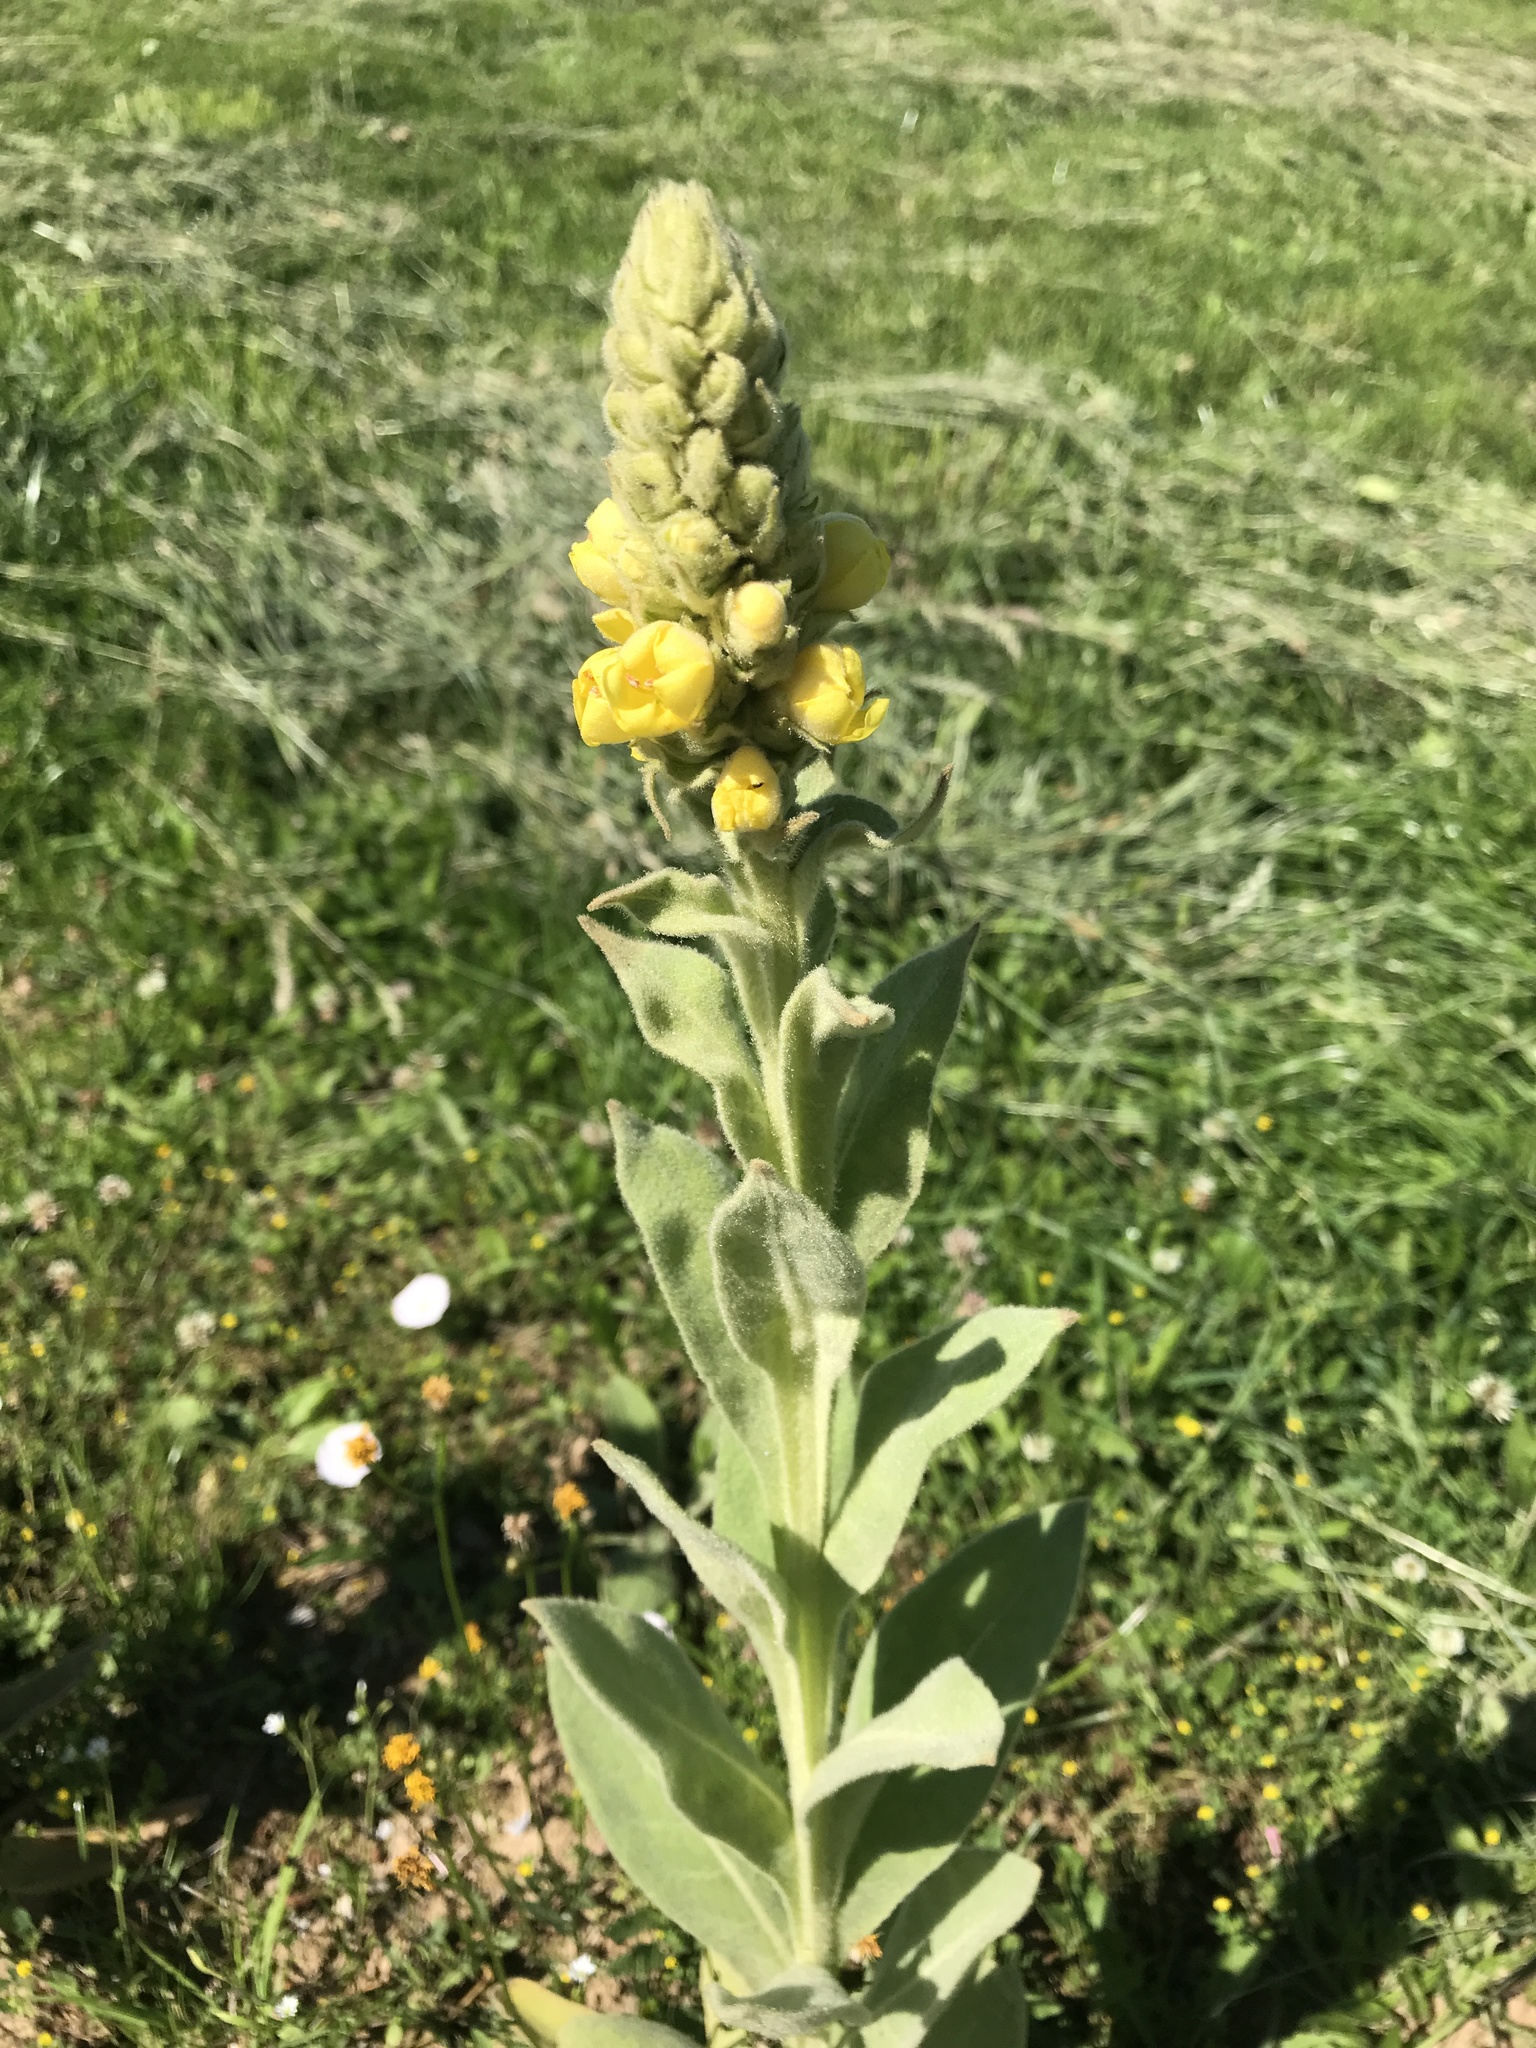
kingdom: Plantae
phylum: Tracheophyta
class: Magnoliopsida
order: Lamiales
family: Scrophulariaceae
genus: Verbascum
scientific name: Verbascum thapsus
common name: Common mullein
